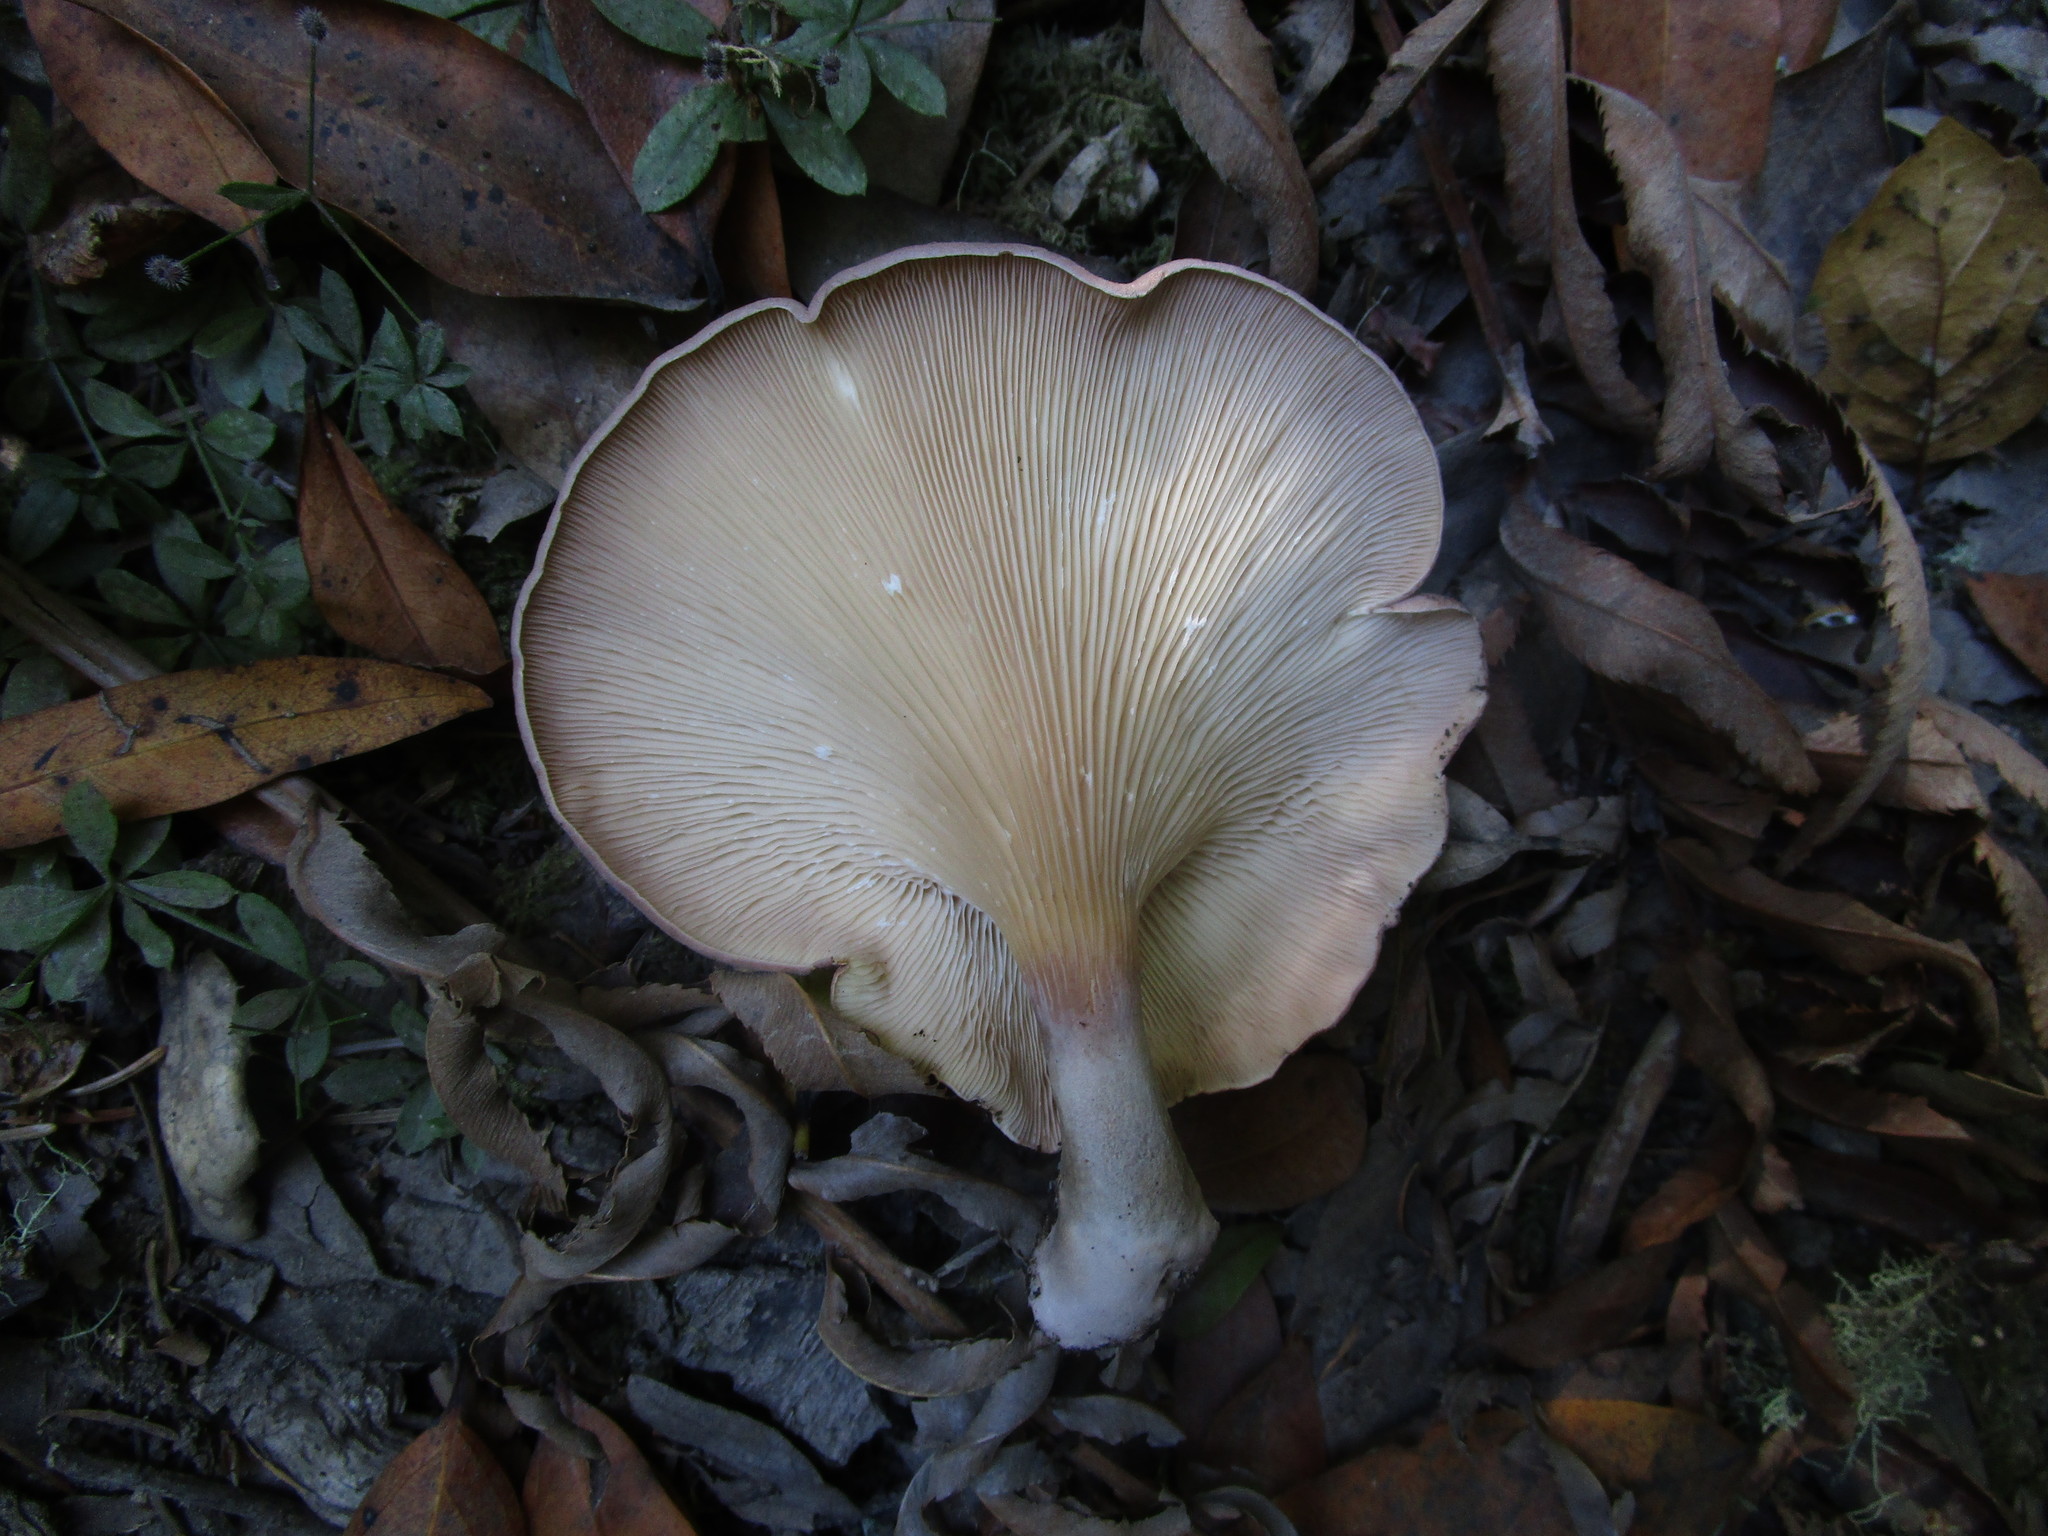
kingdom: Fungi
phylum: Basidiomycota
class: Agaricomycetes
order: Polyporales
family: Panaceae
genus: Panus
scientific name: Panus conchatus
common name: Lilac oysterling
